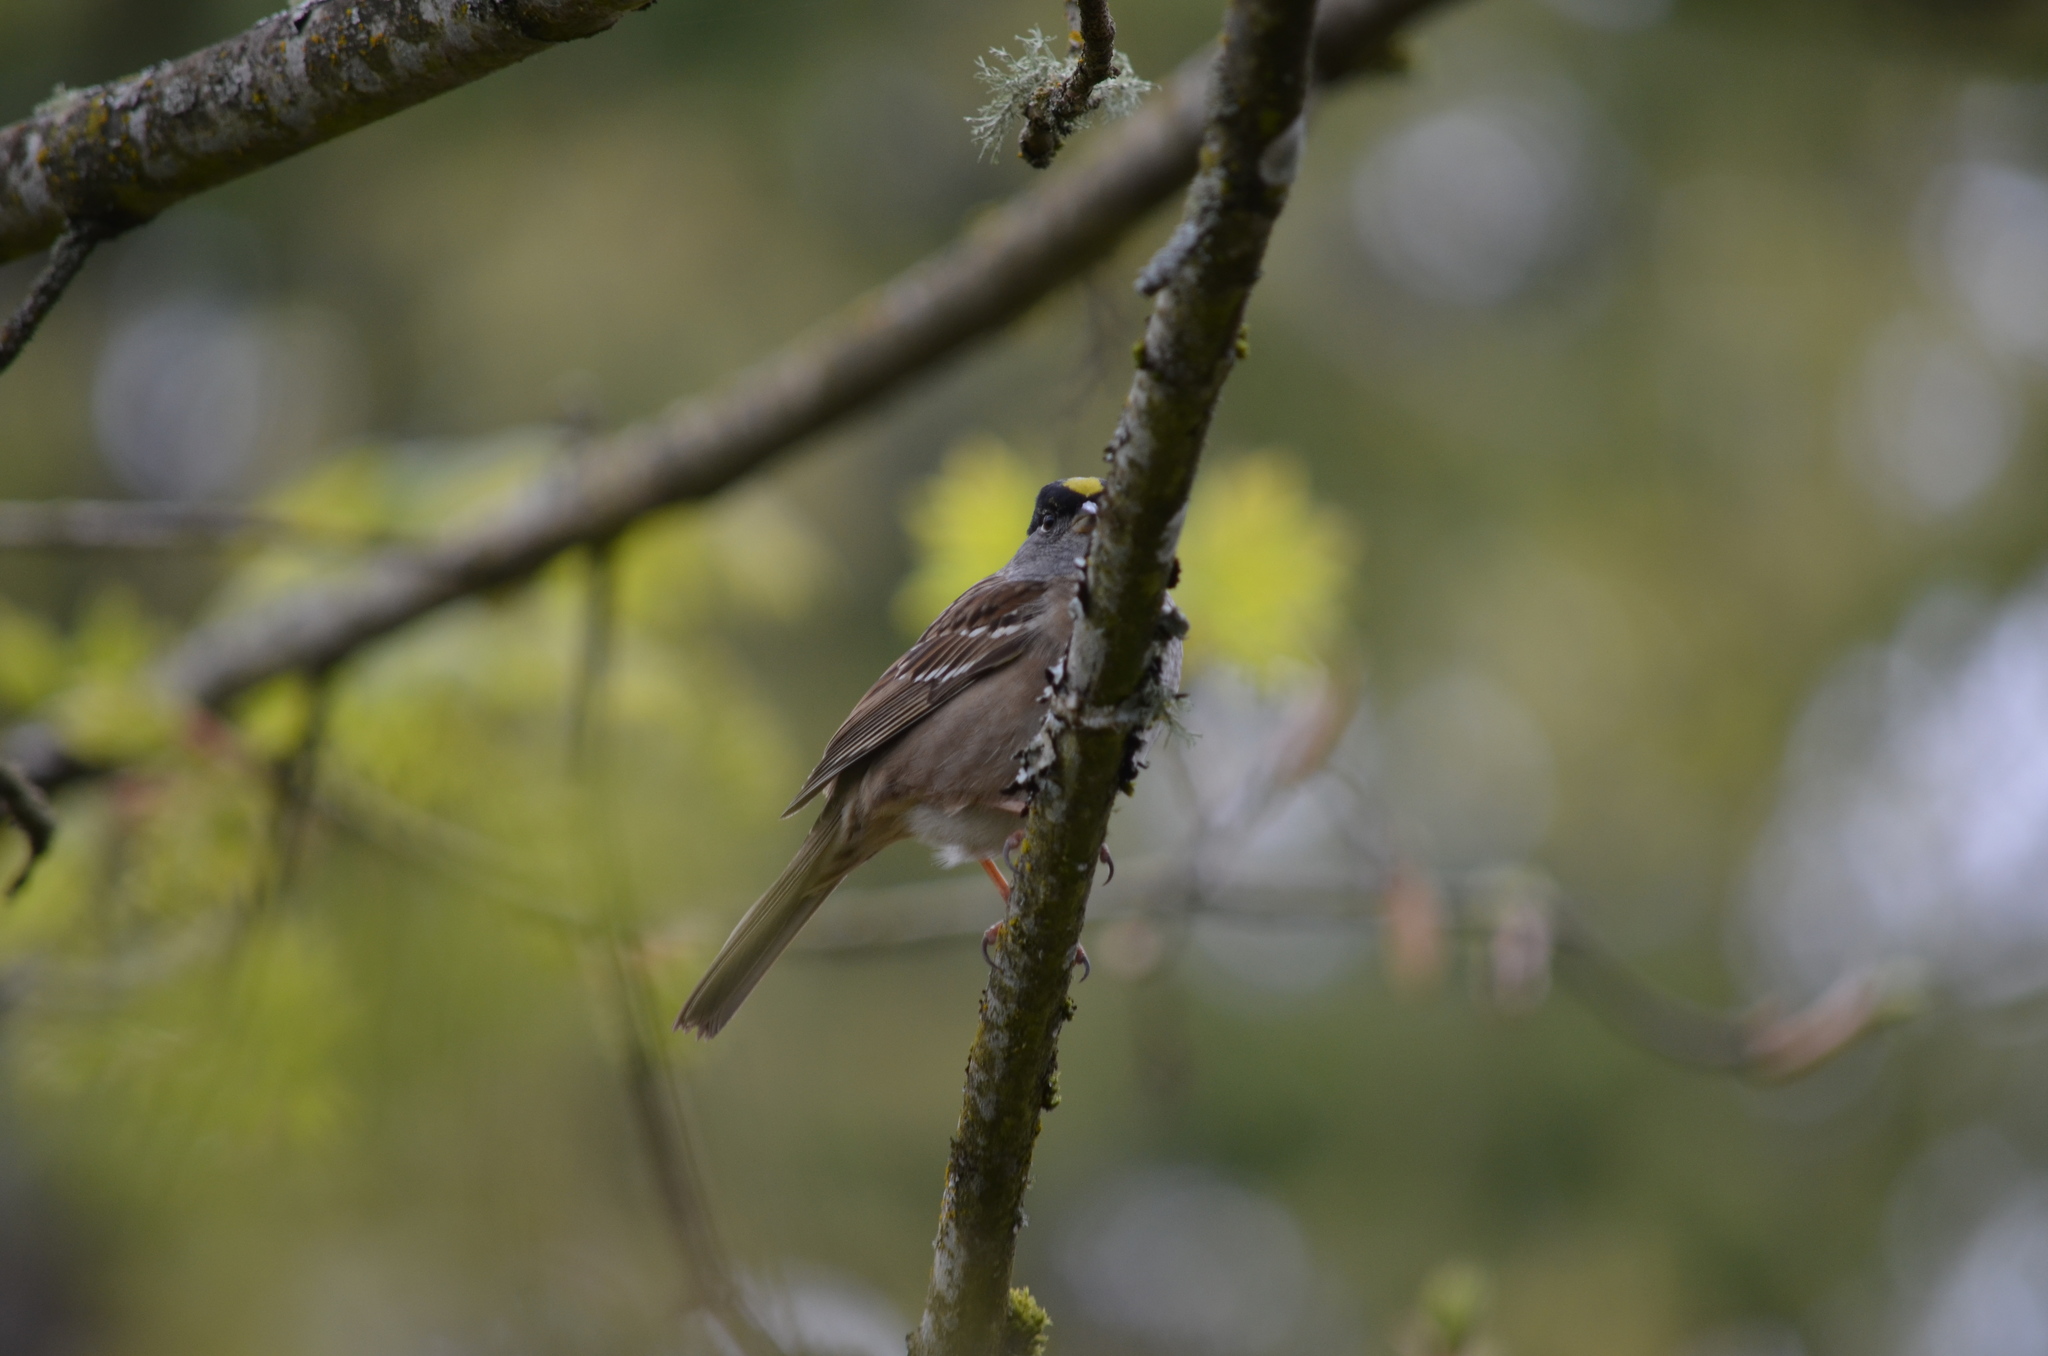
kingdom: Animalia
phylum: Chordata
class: Aves
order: Passeriformes
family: Passerellidae
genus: Zonotrichia
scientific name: Zonotrichia atricapilla
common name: Golden-crowned sparrow
